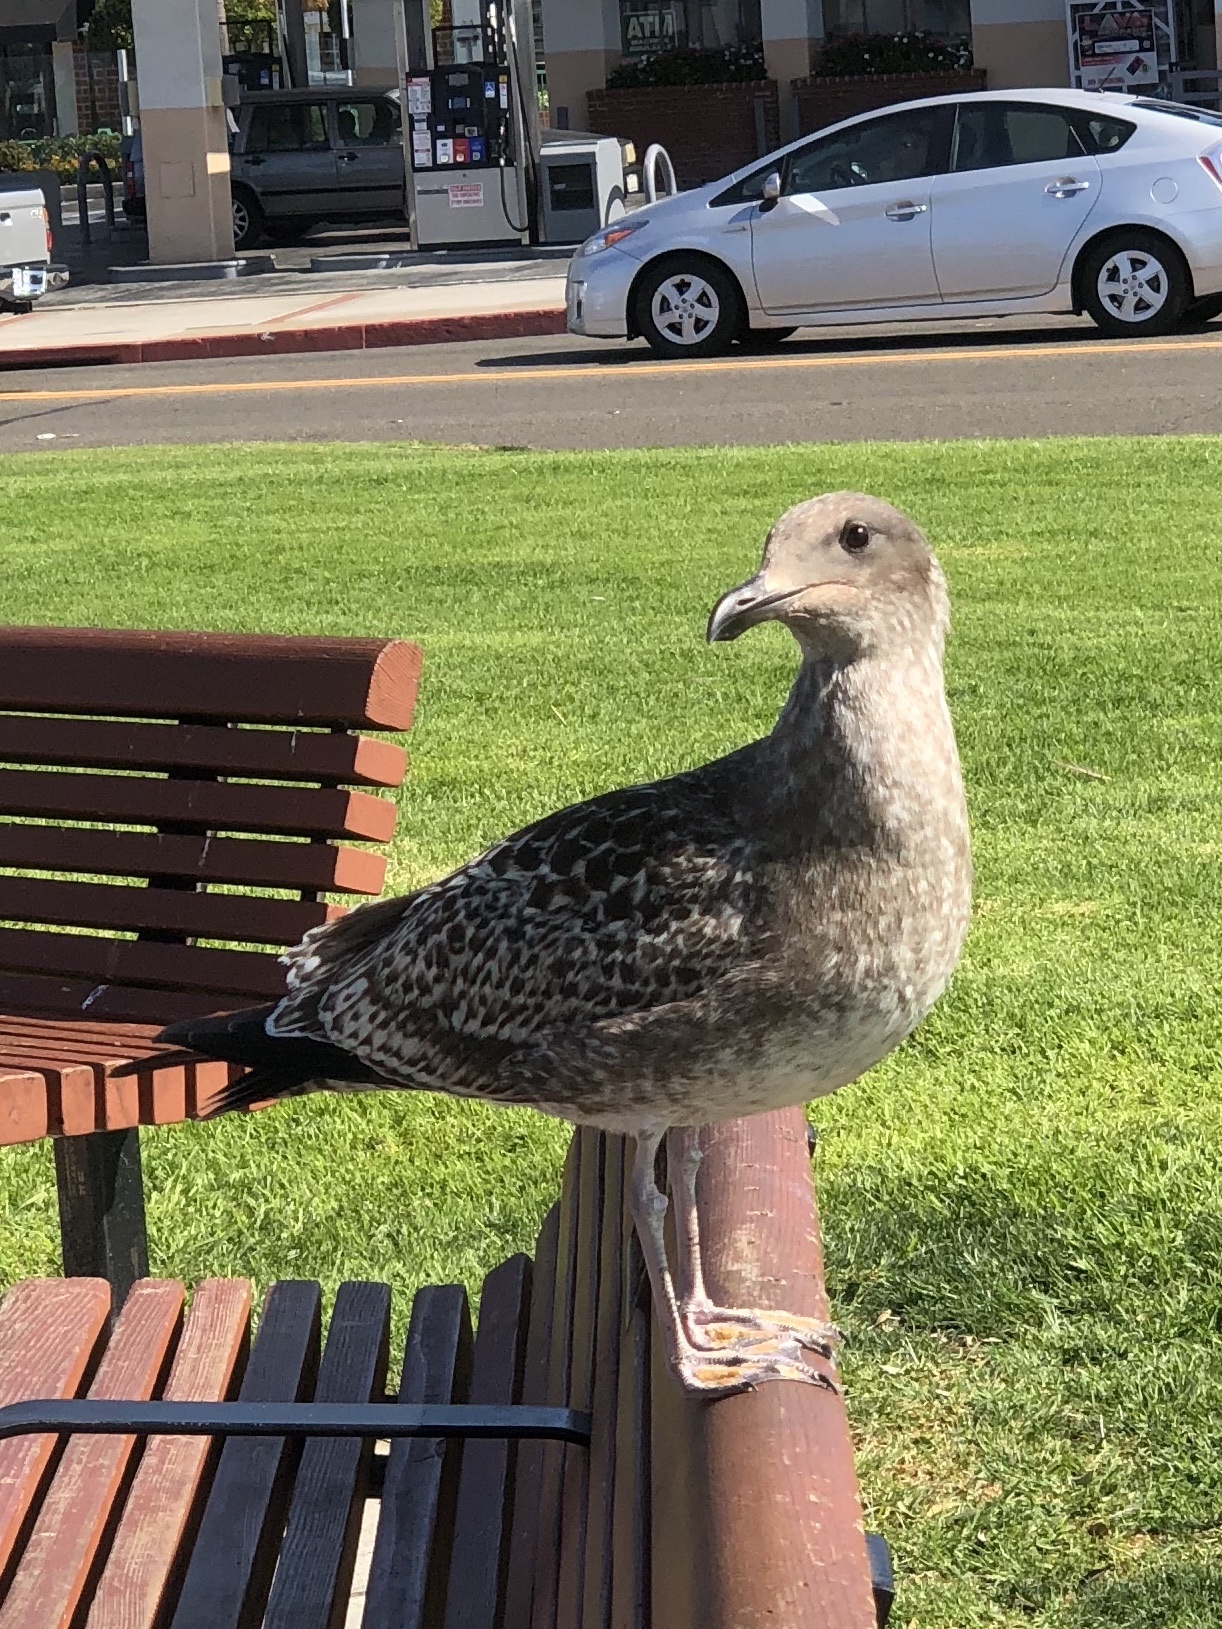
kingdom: Animalia
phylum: Chordata
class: Aves
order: Charadriiformes
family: Laridae
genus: Larus
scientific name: Larus occidentalis
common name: Western gull
